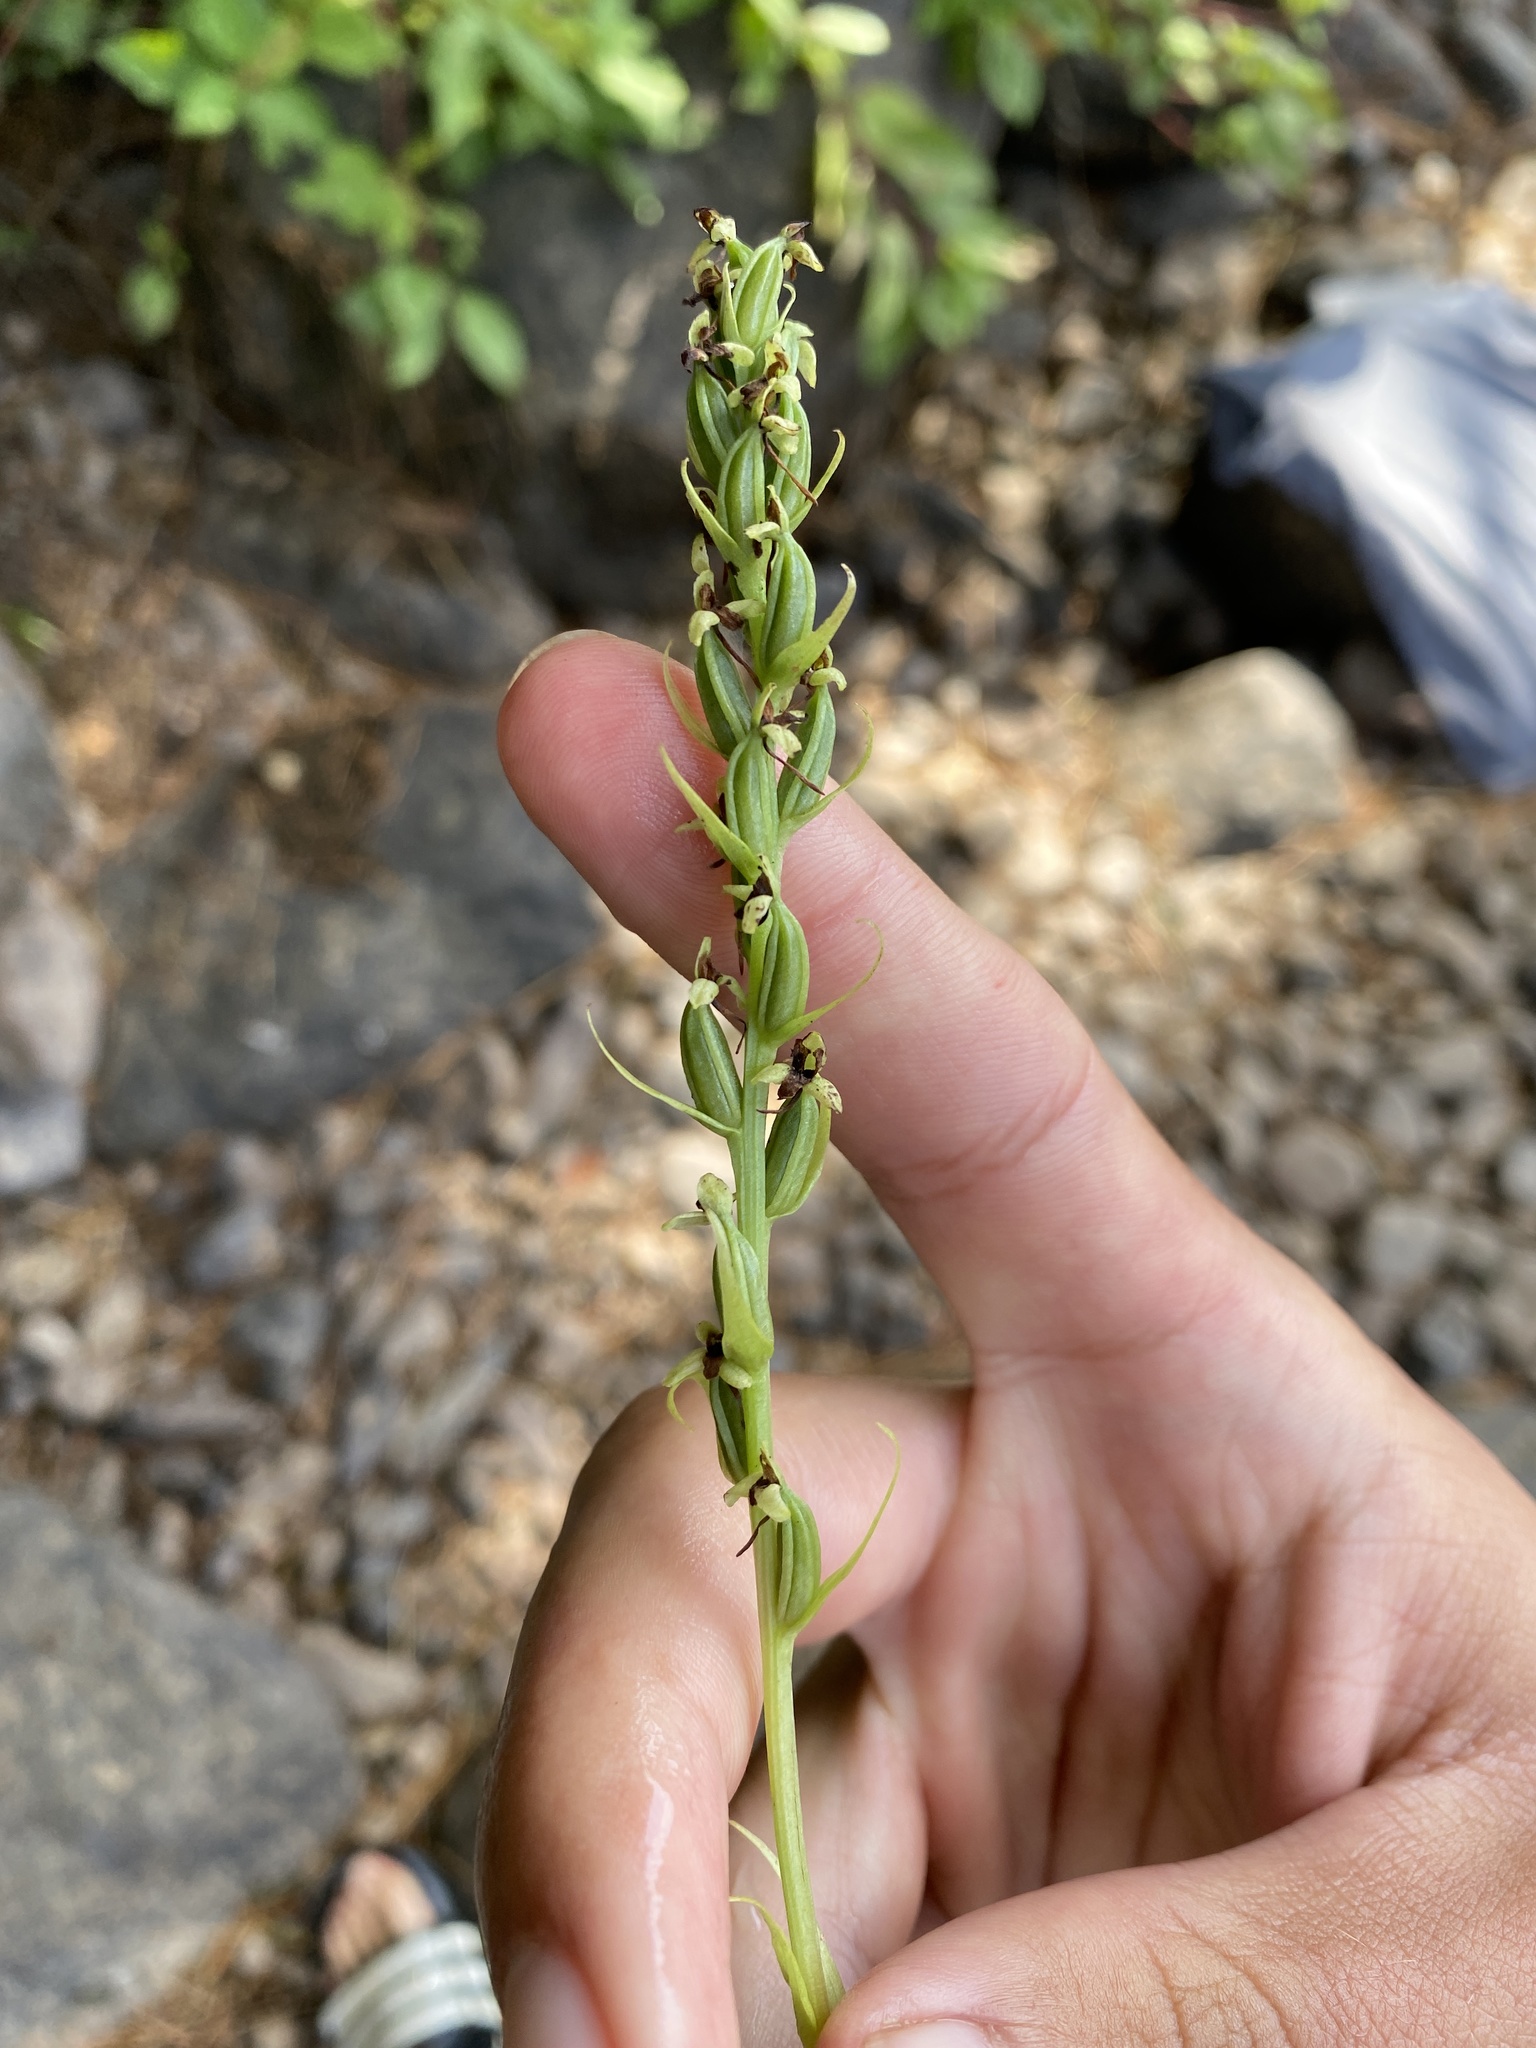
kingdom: Plantae
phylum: Tracheophyta
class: Liliopsida
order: Asparagales
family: Orchidaceae
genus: Platanthera
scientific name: Platanthera flava
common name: Gypsy-spikes
